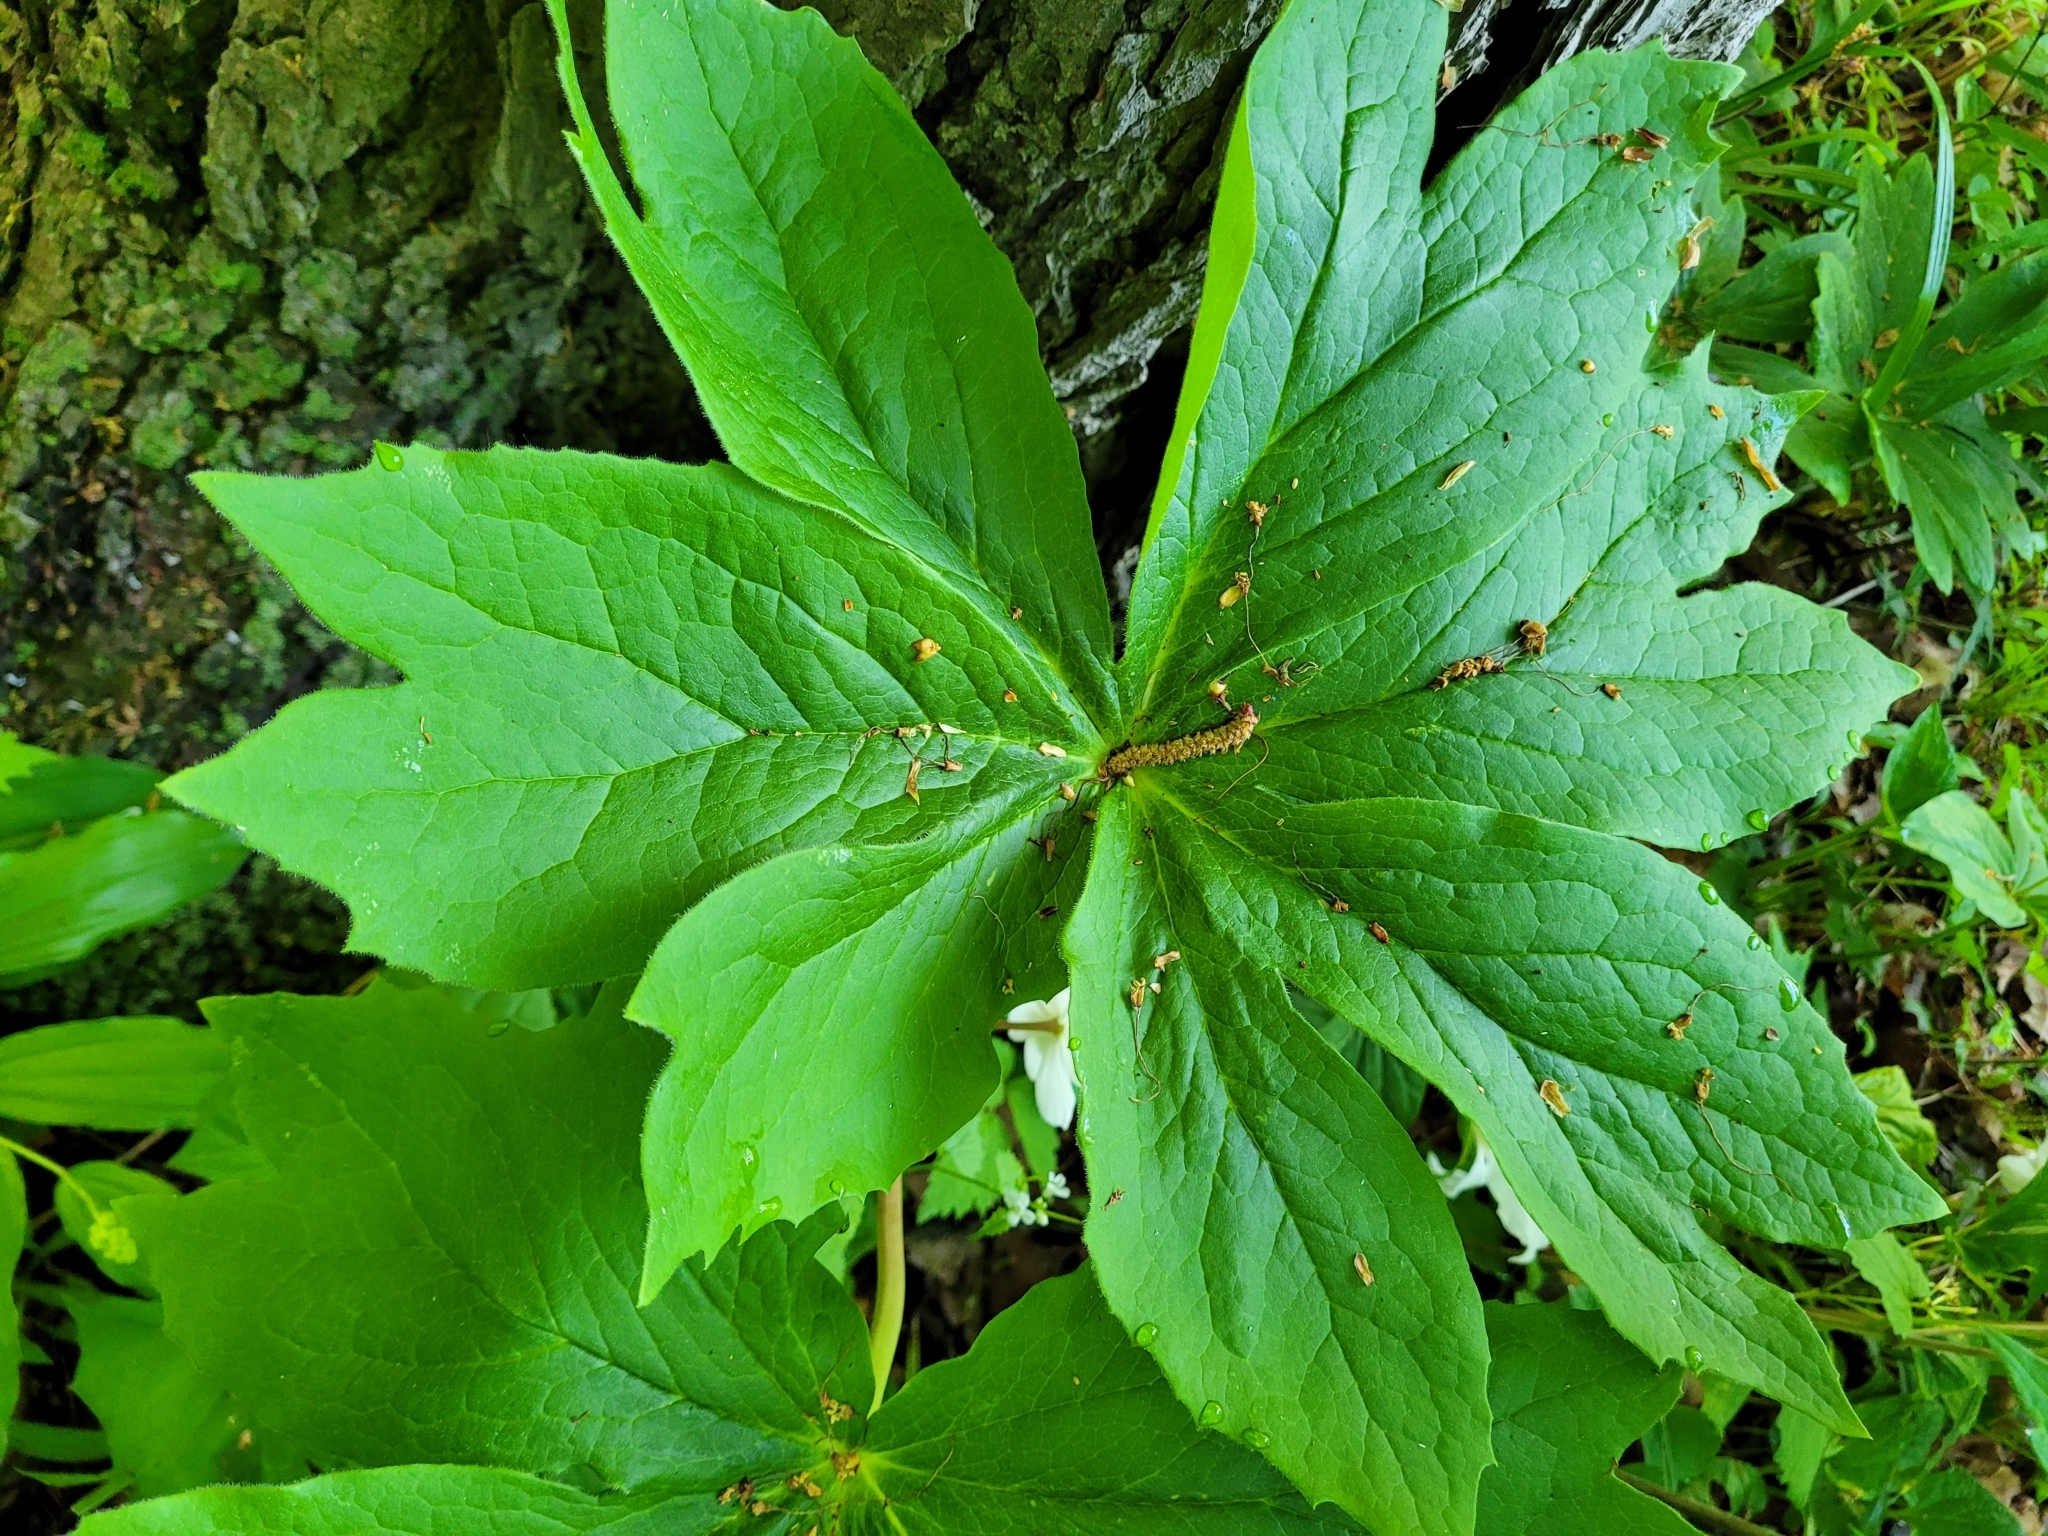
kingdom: Plantae
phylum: Tracheophyta
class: Magnoliopsida
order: Ranunculales
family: Berberidaceae
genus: Podophyllum
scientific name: Podophyllum peltatum
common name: Wild mandrake
